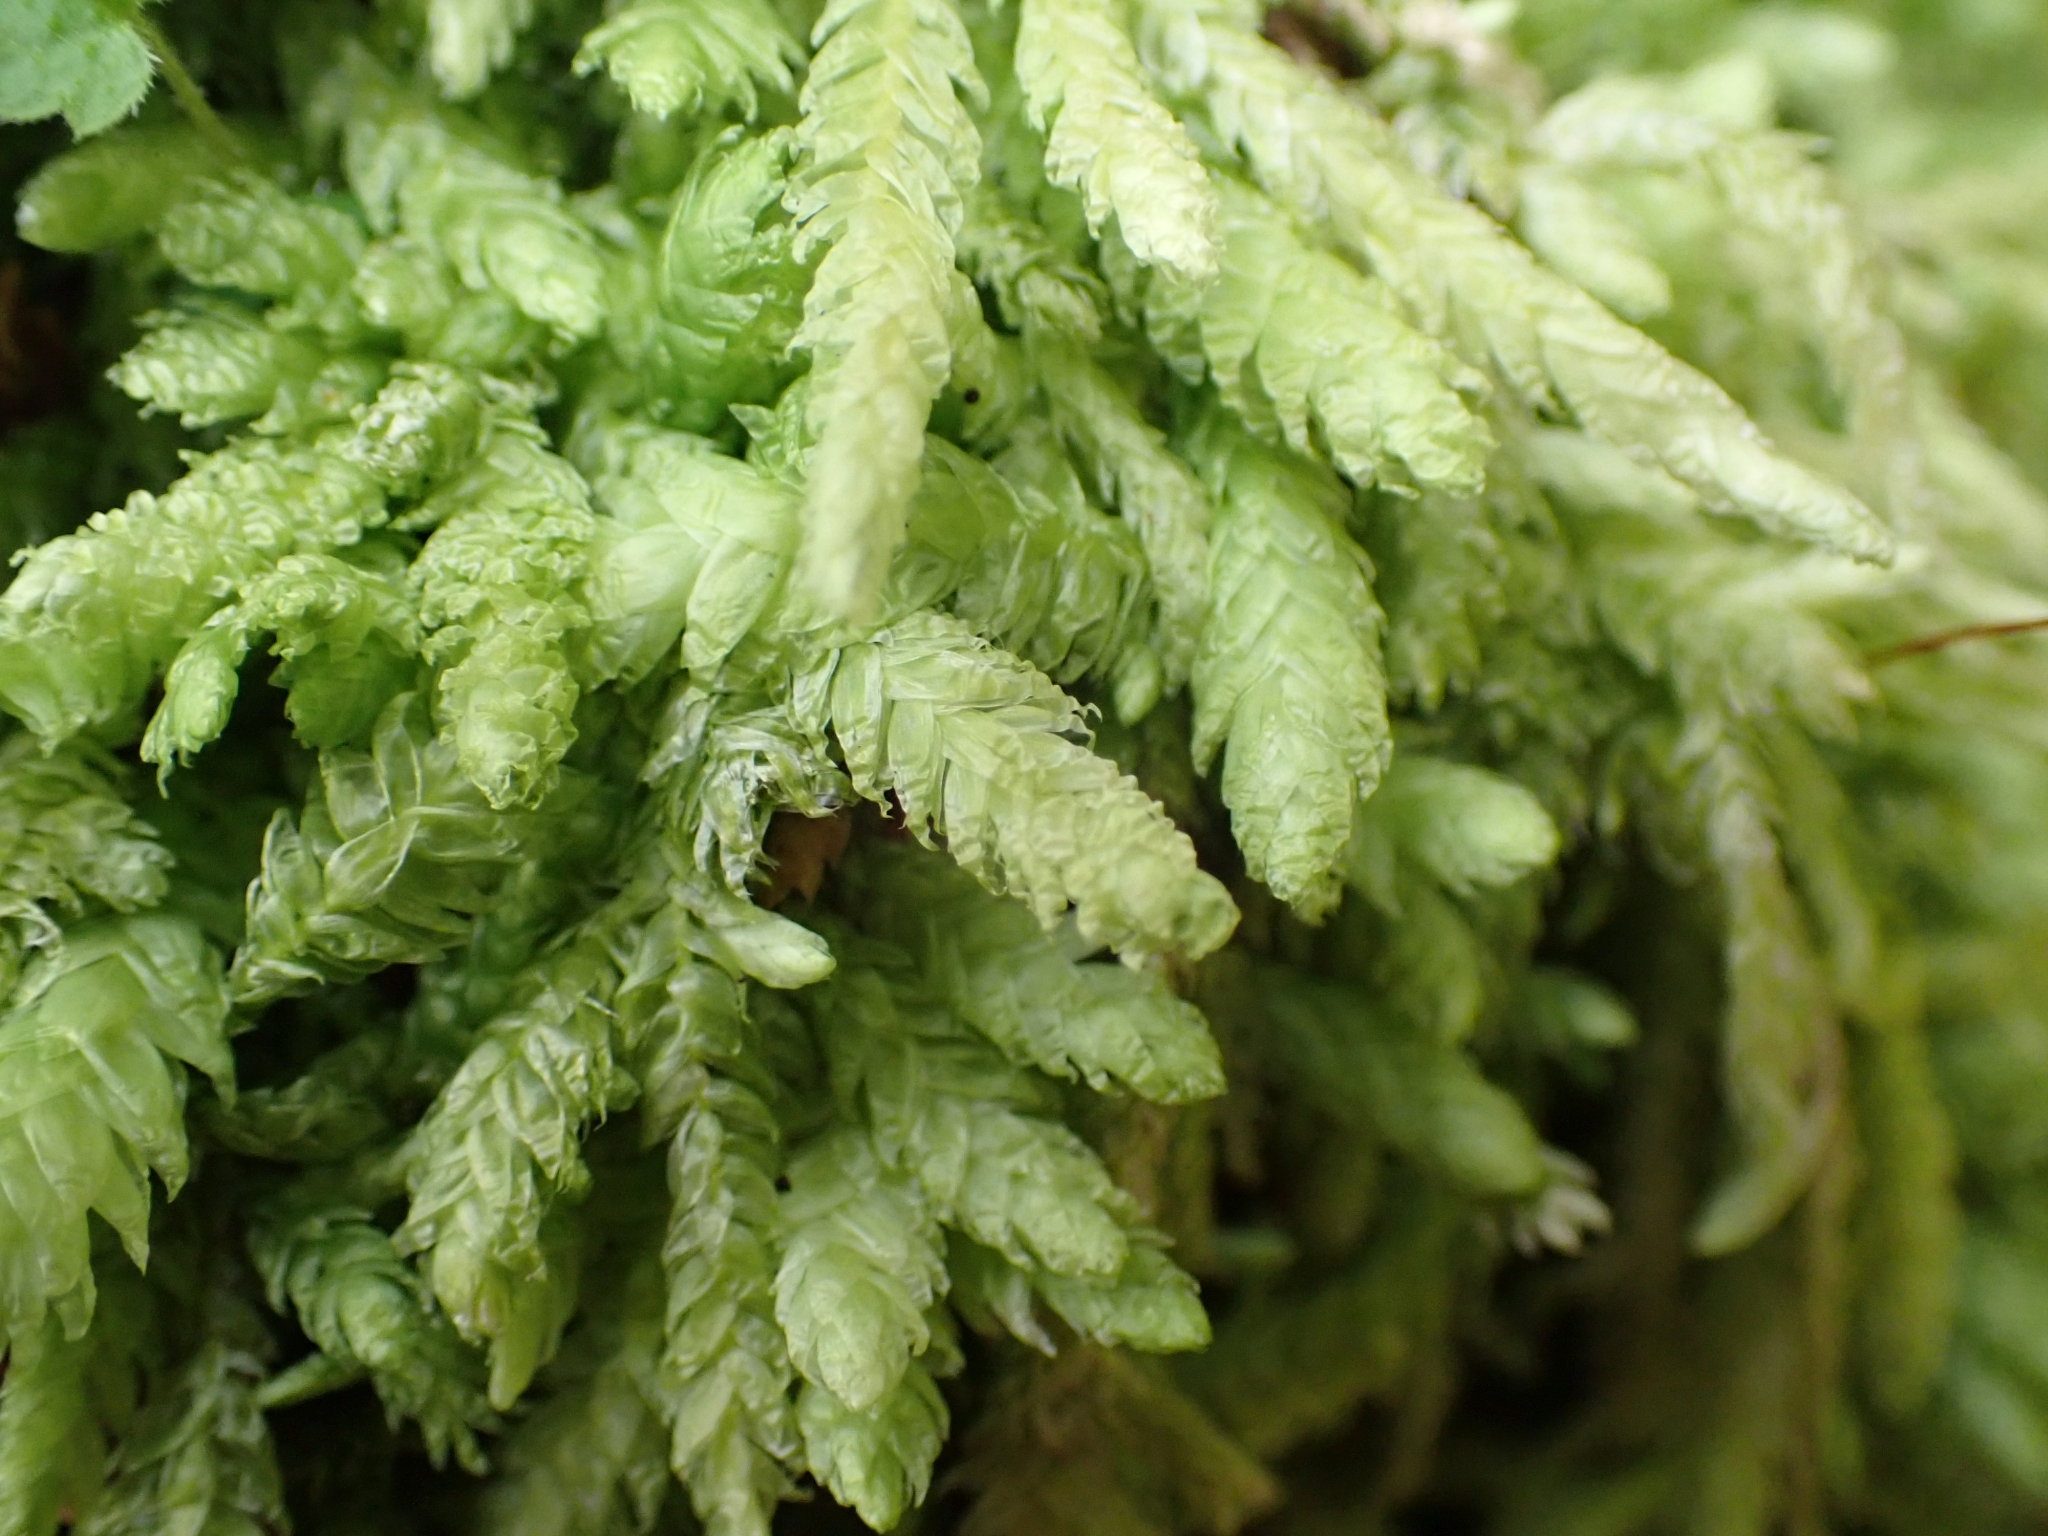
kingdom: Plantae
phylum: Bryophyta
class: Bryopsida
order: Hypnales
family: Plagiotheciaceae
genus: Plagiothecium
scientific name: Plagiothecium undulatum
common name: Waved silk-moss
